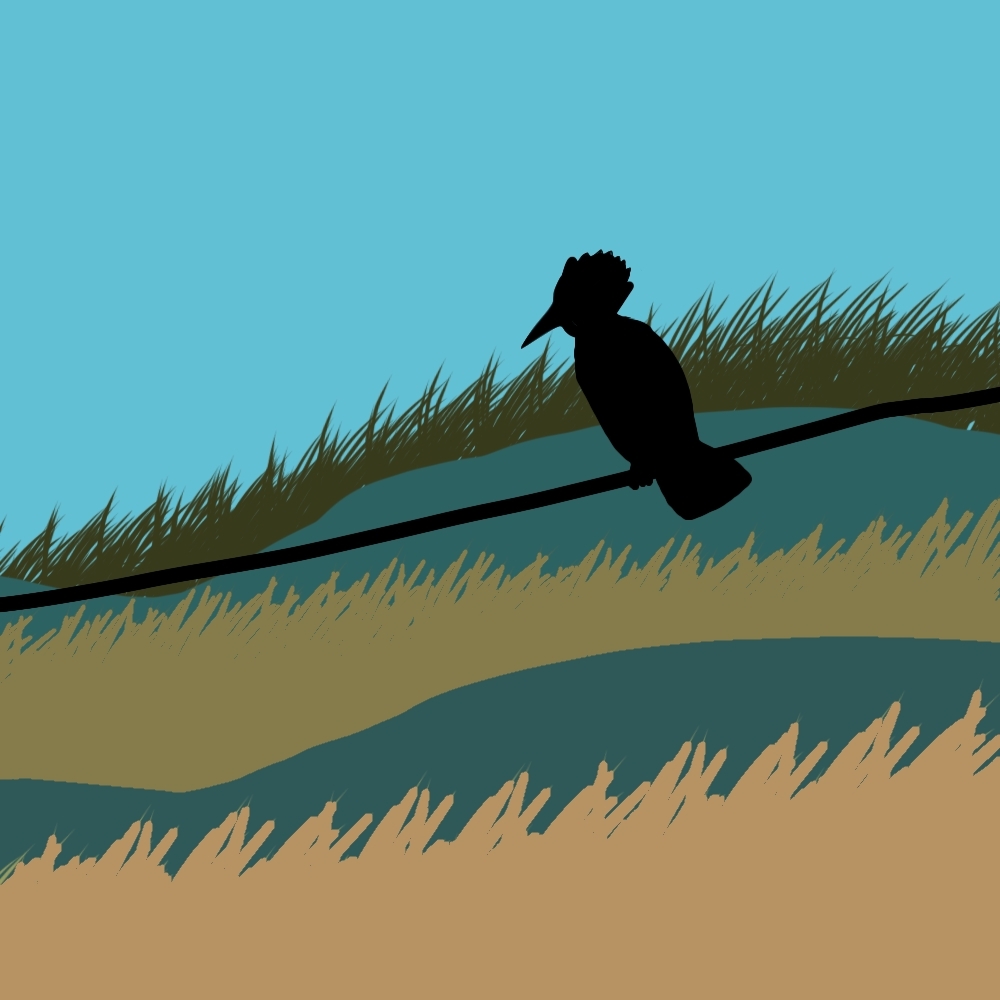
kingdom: Animalia
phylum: Chordata
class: Aves
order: Coraciiformes
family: Alcedinidae
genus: Megaceryle
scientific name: Megaceryle alcyon
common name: Belted kingfisher
